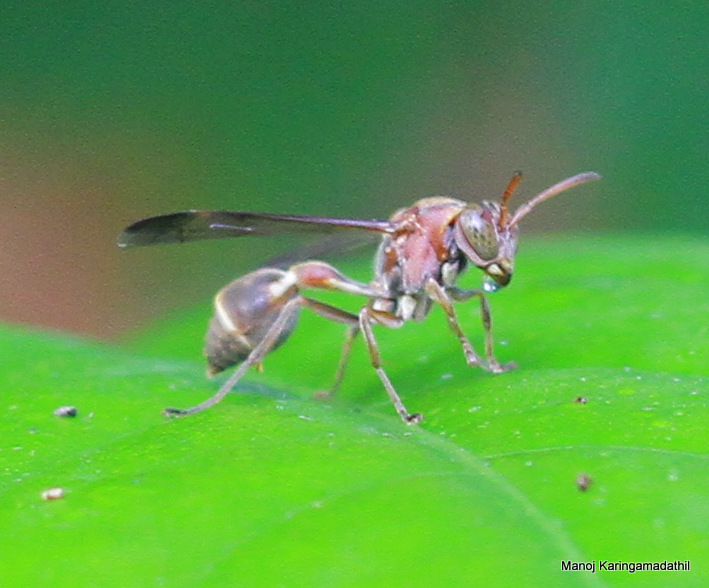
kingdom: Animalia
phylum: Arthropoda
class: Insecta
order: Hymenoptera
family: Vespidae
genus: Ropalidia
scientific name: Ropalidia stigma
